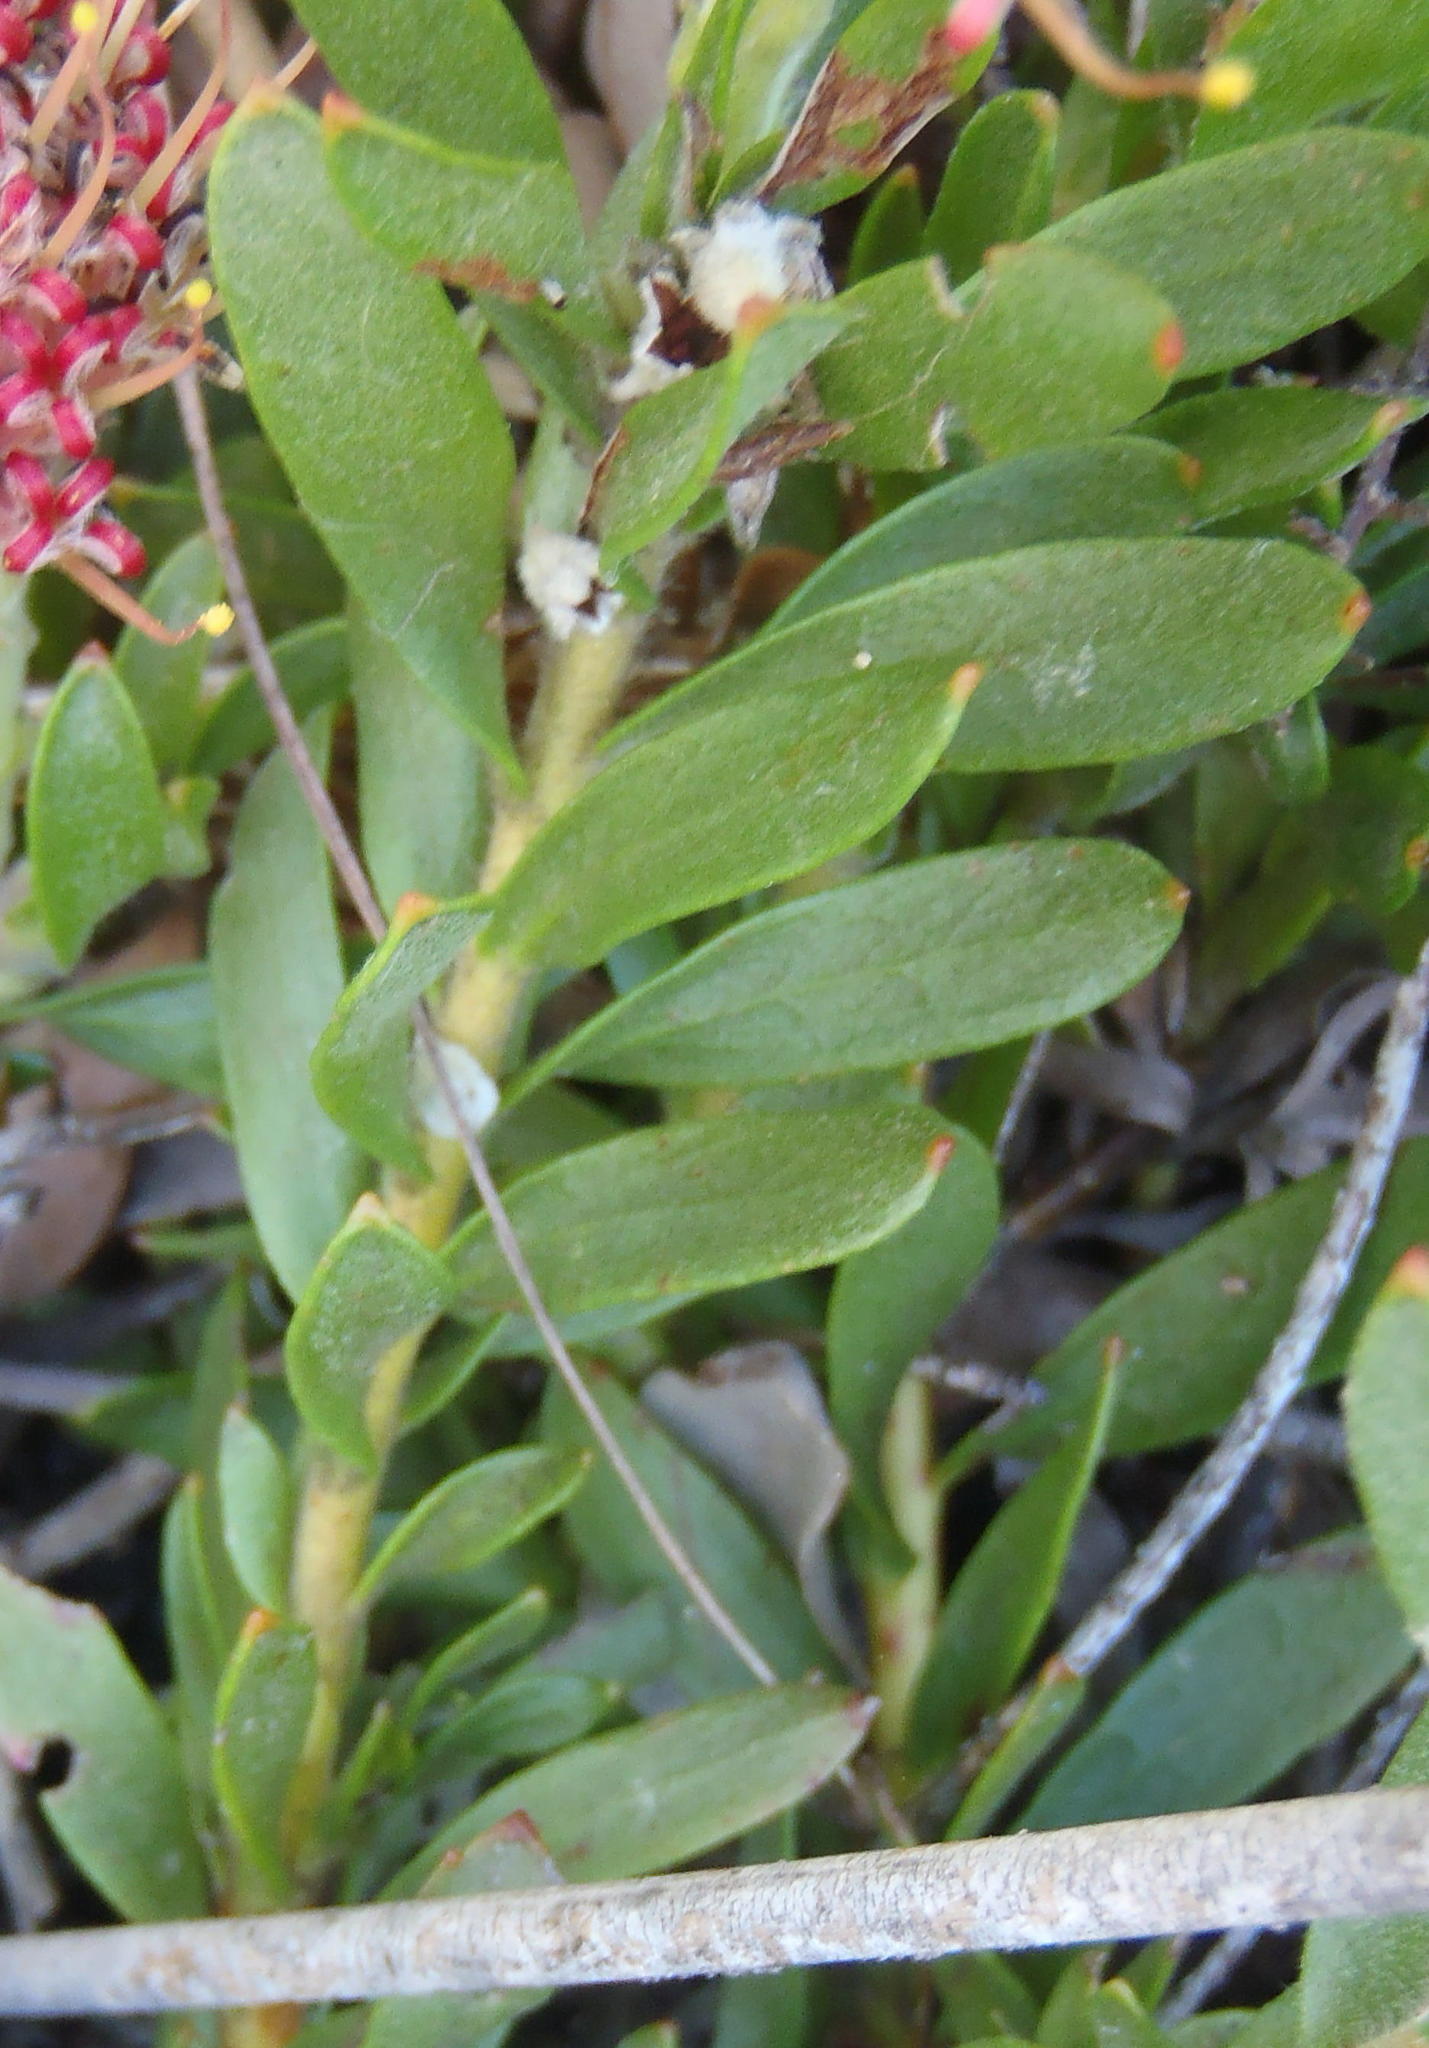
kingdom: Plantae
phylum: Tracheophyta
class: Magnoliopsida
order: Proteales
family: Proteaceae
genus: Leucospermum
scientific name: Leucospermum heterophyllum
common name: Trident pincushion
